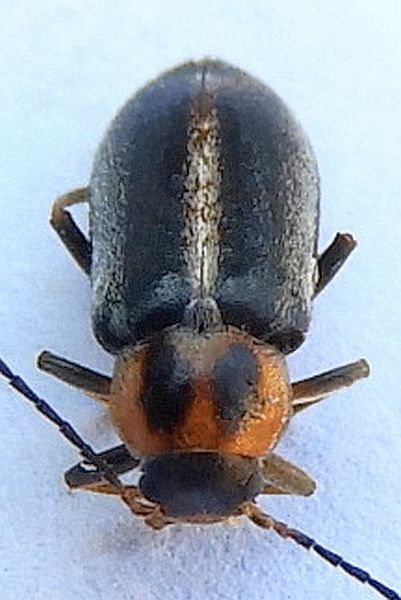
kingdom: Animalia
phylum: Arthropoda
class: Insecta
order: Coleoptera
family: Melandryidae
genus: Osphya
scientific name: Osphya varians
